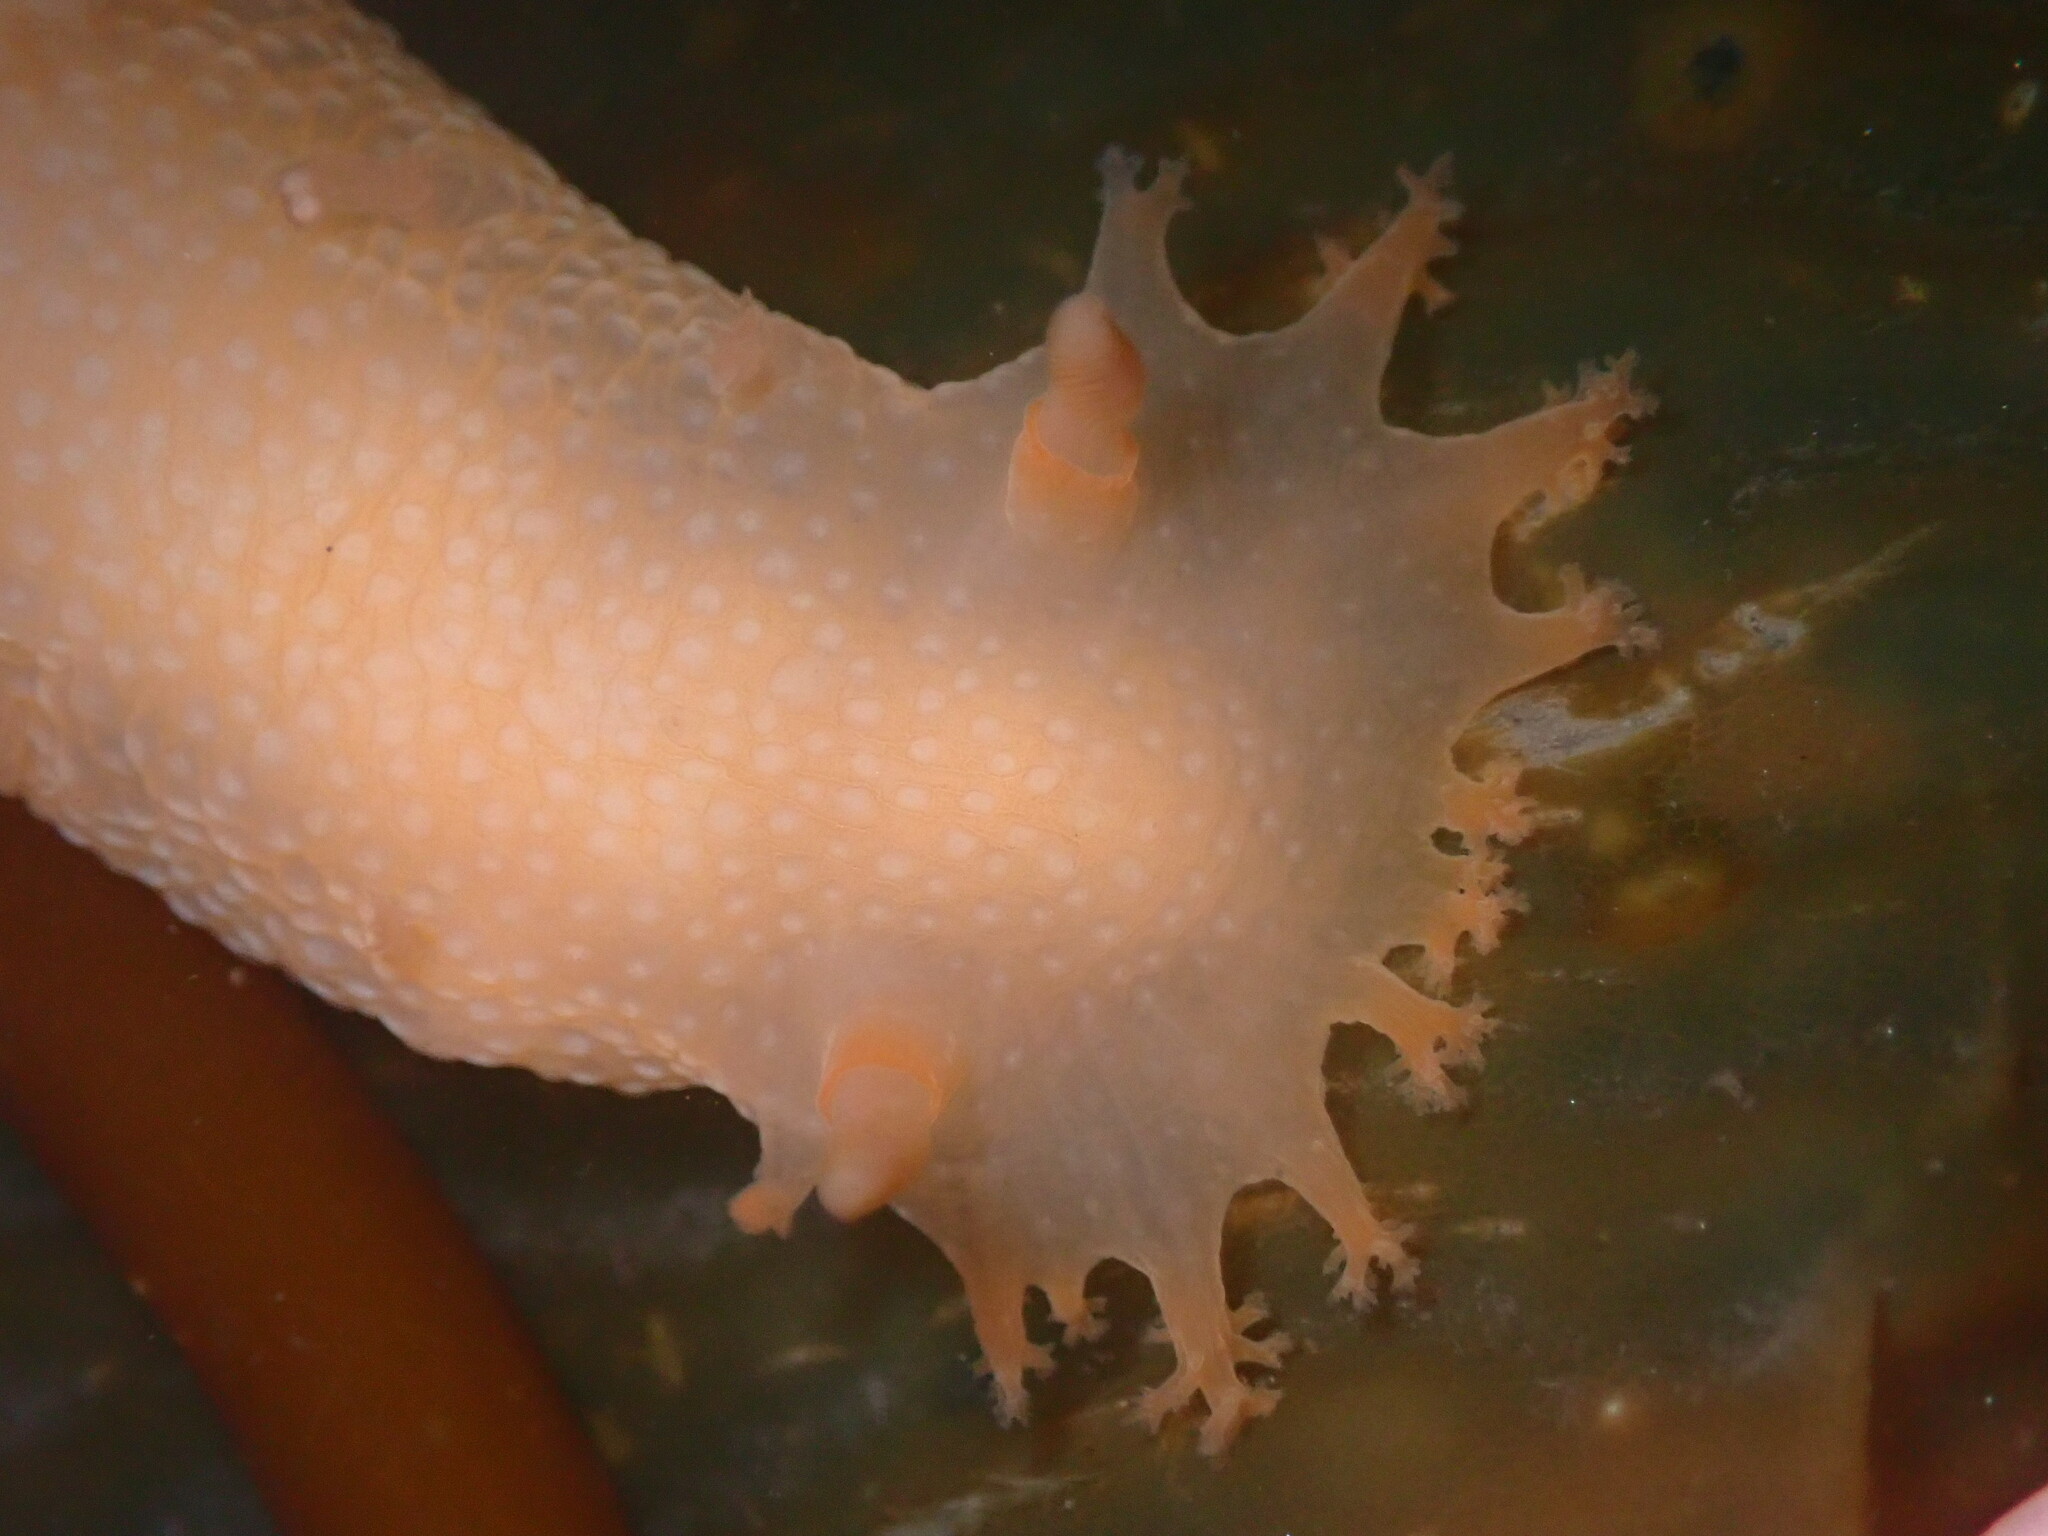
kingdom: Animalia
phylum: Mollusca
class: Gastropoda
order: Nudibranchia
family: Polyceridae
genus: Triopha
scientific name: Triopha maculata
